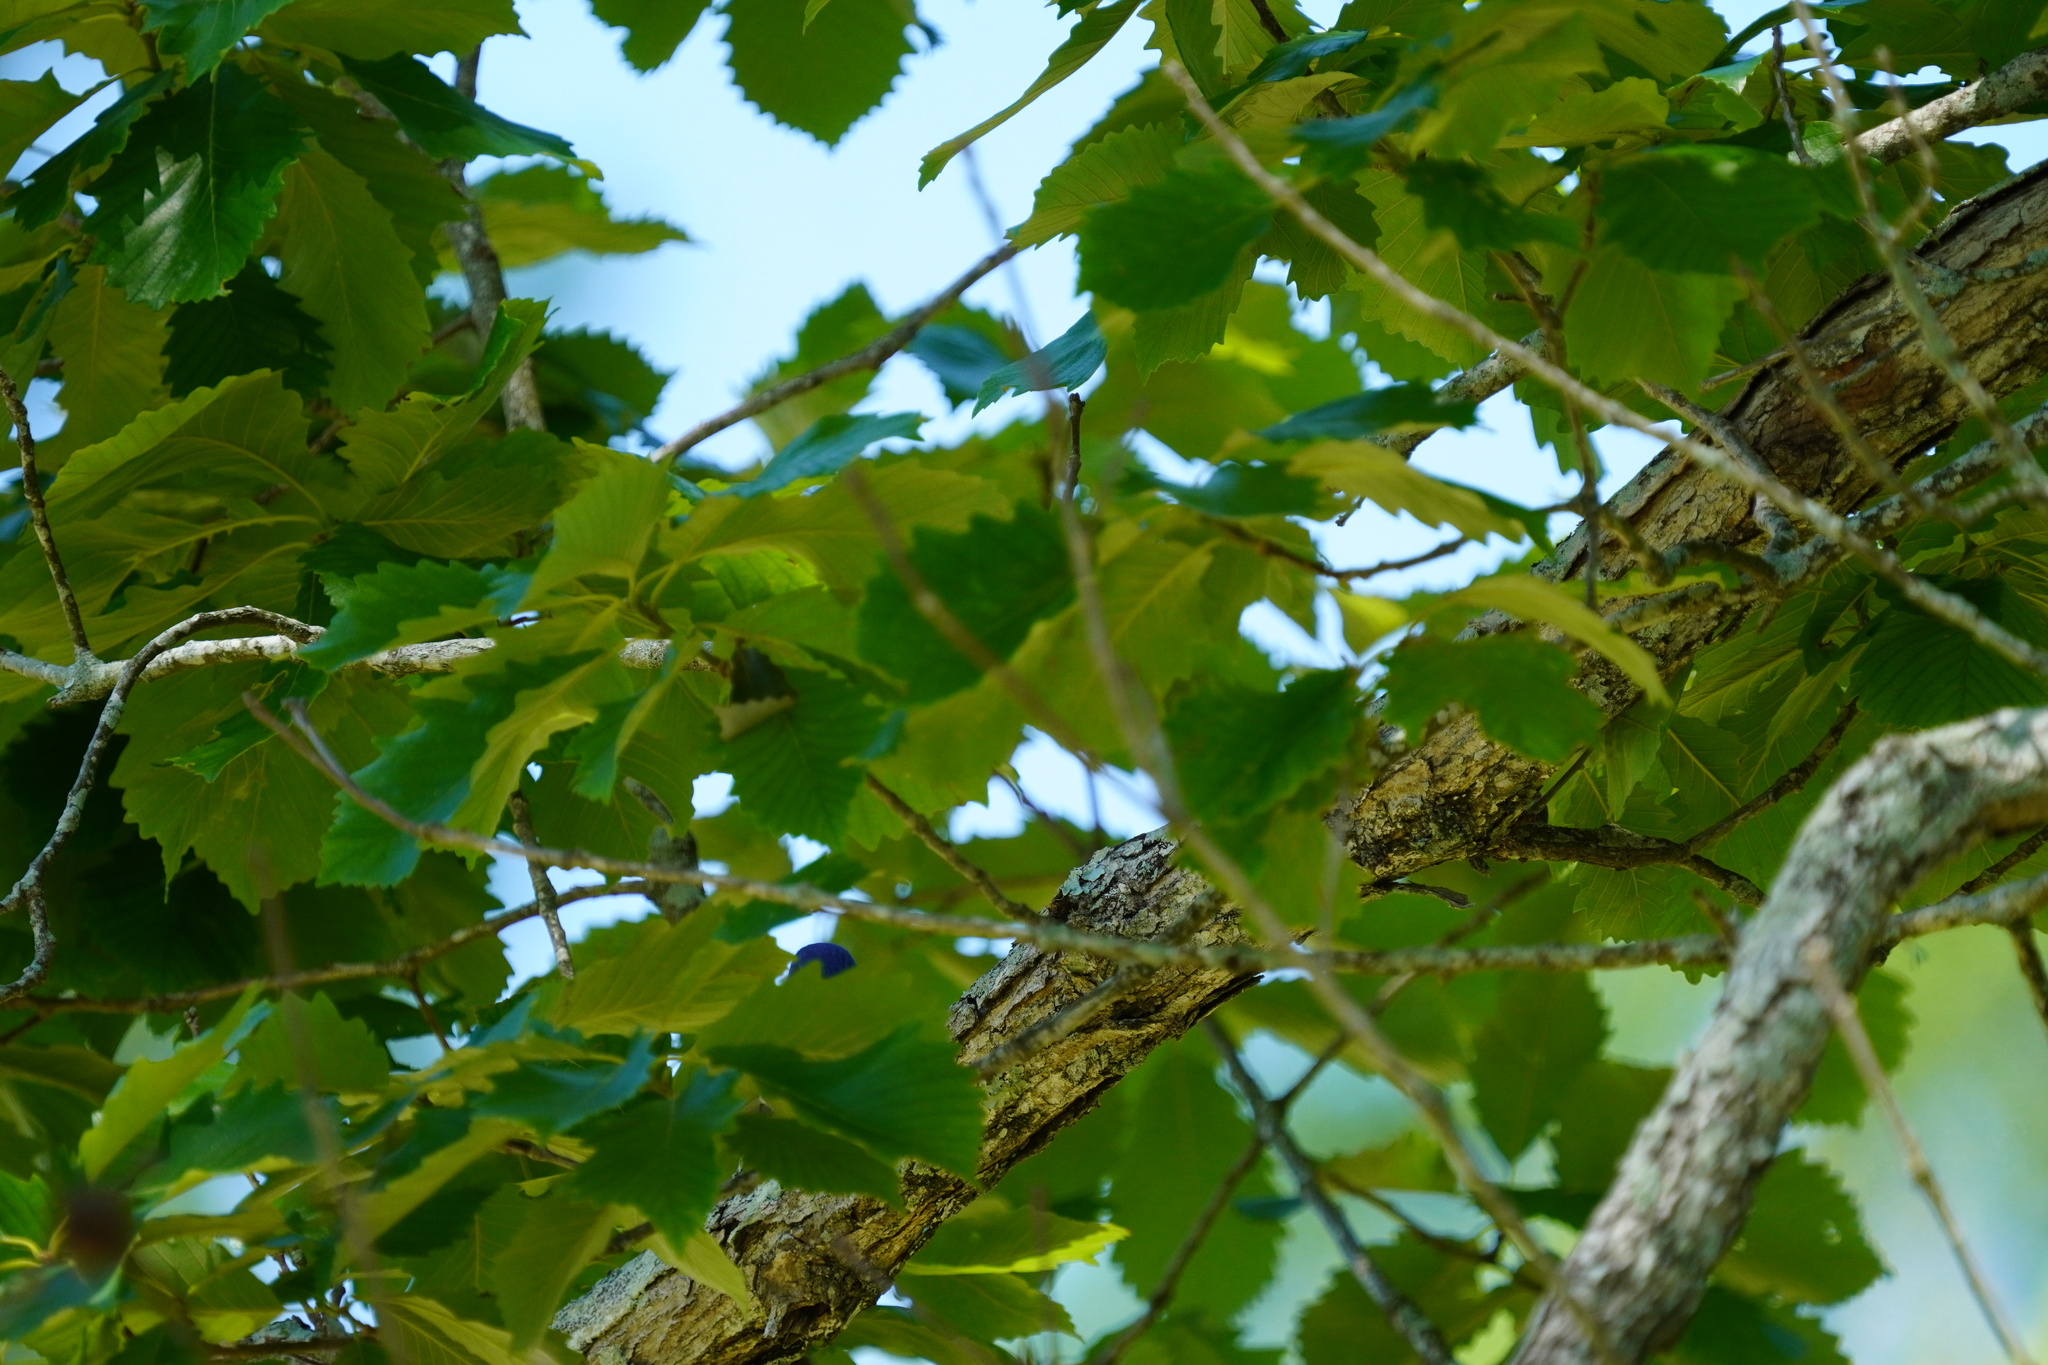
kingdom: Animalia
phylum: Chordata
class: Aves
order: Passeriformes
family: Turdidae
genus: Sialia
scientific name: Sialia sialis
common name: Eastern bluebird
